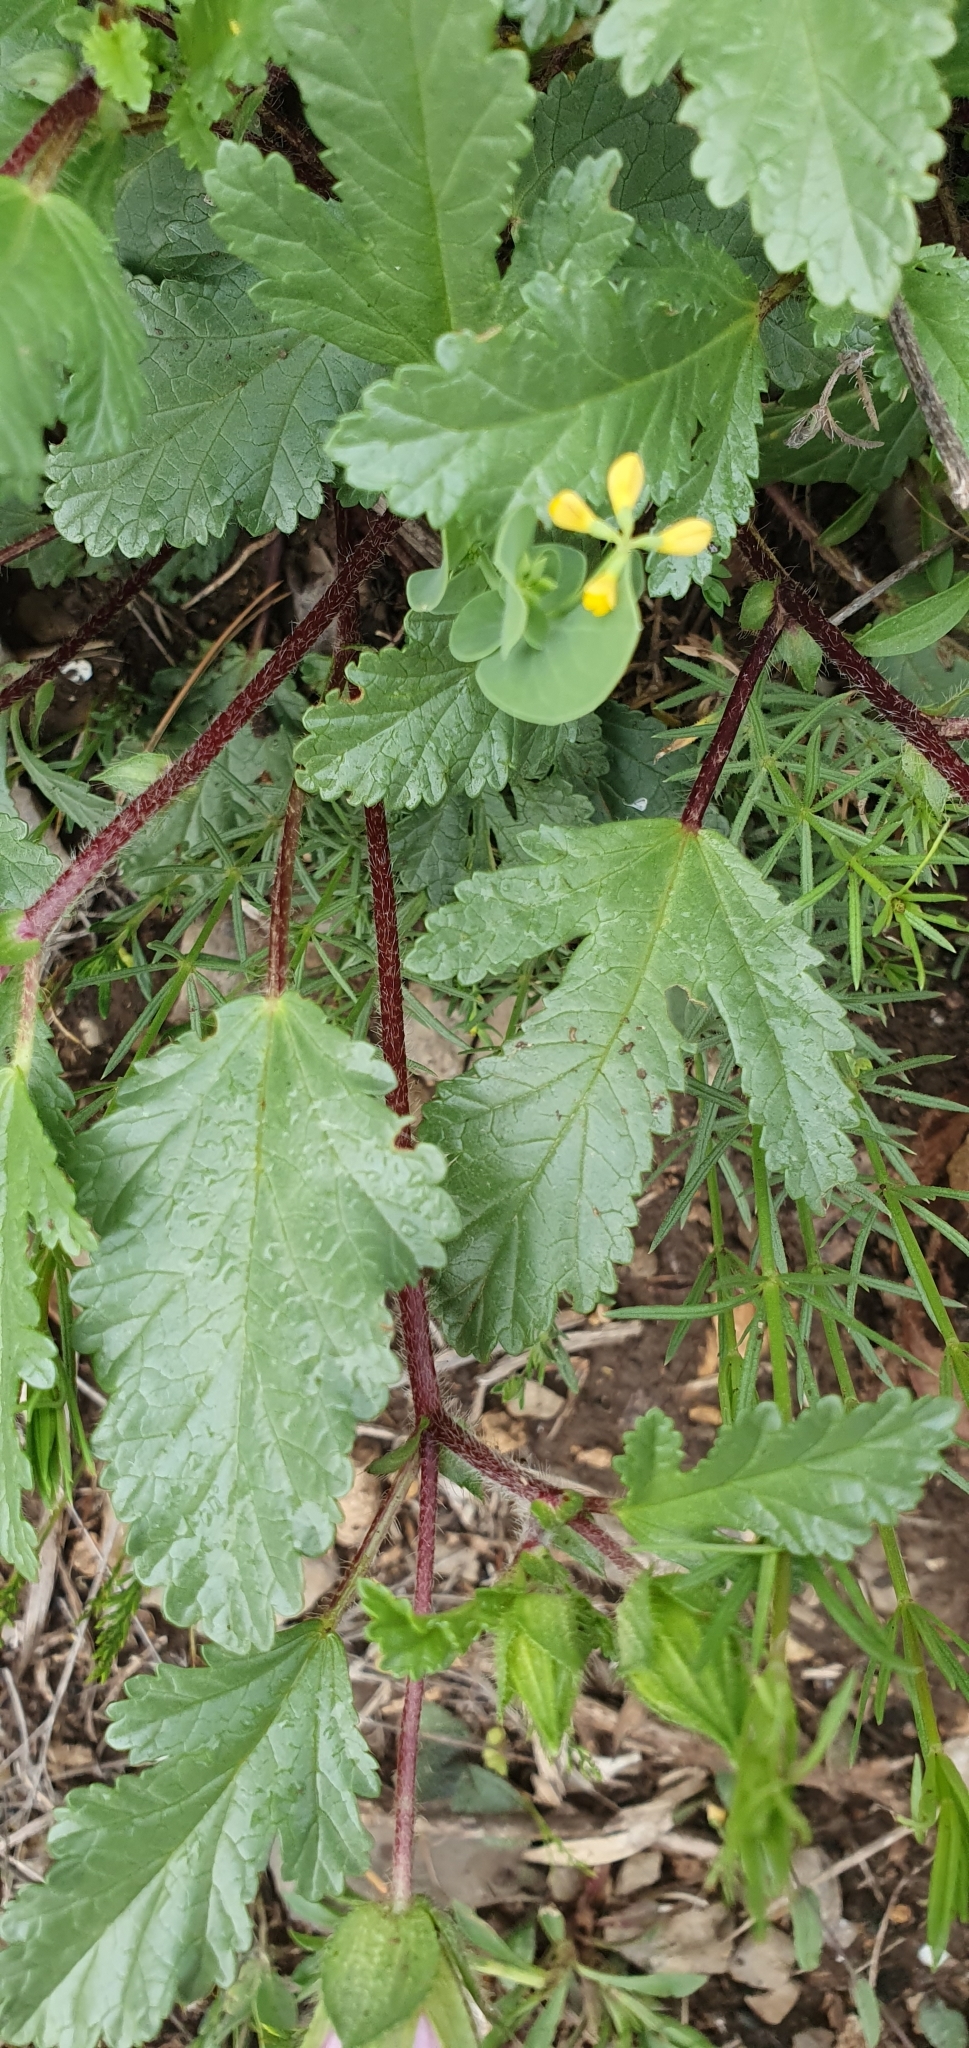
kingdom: Plantae
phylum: Tracheophyta
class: Magnoliopsida
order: Malvales
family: Malvaceae
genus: Malope
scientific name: Malope malacoides
